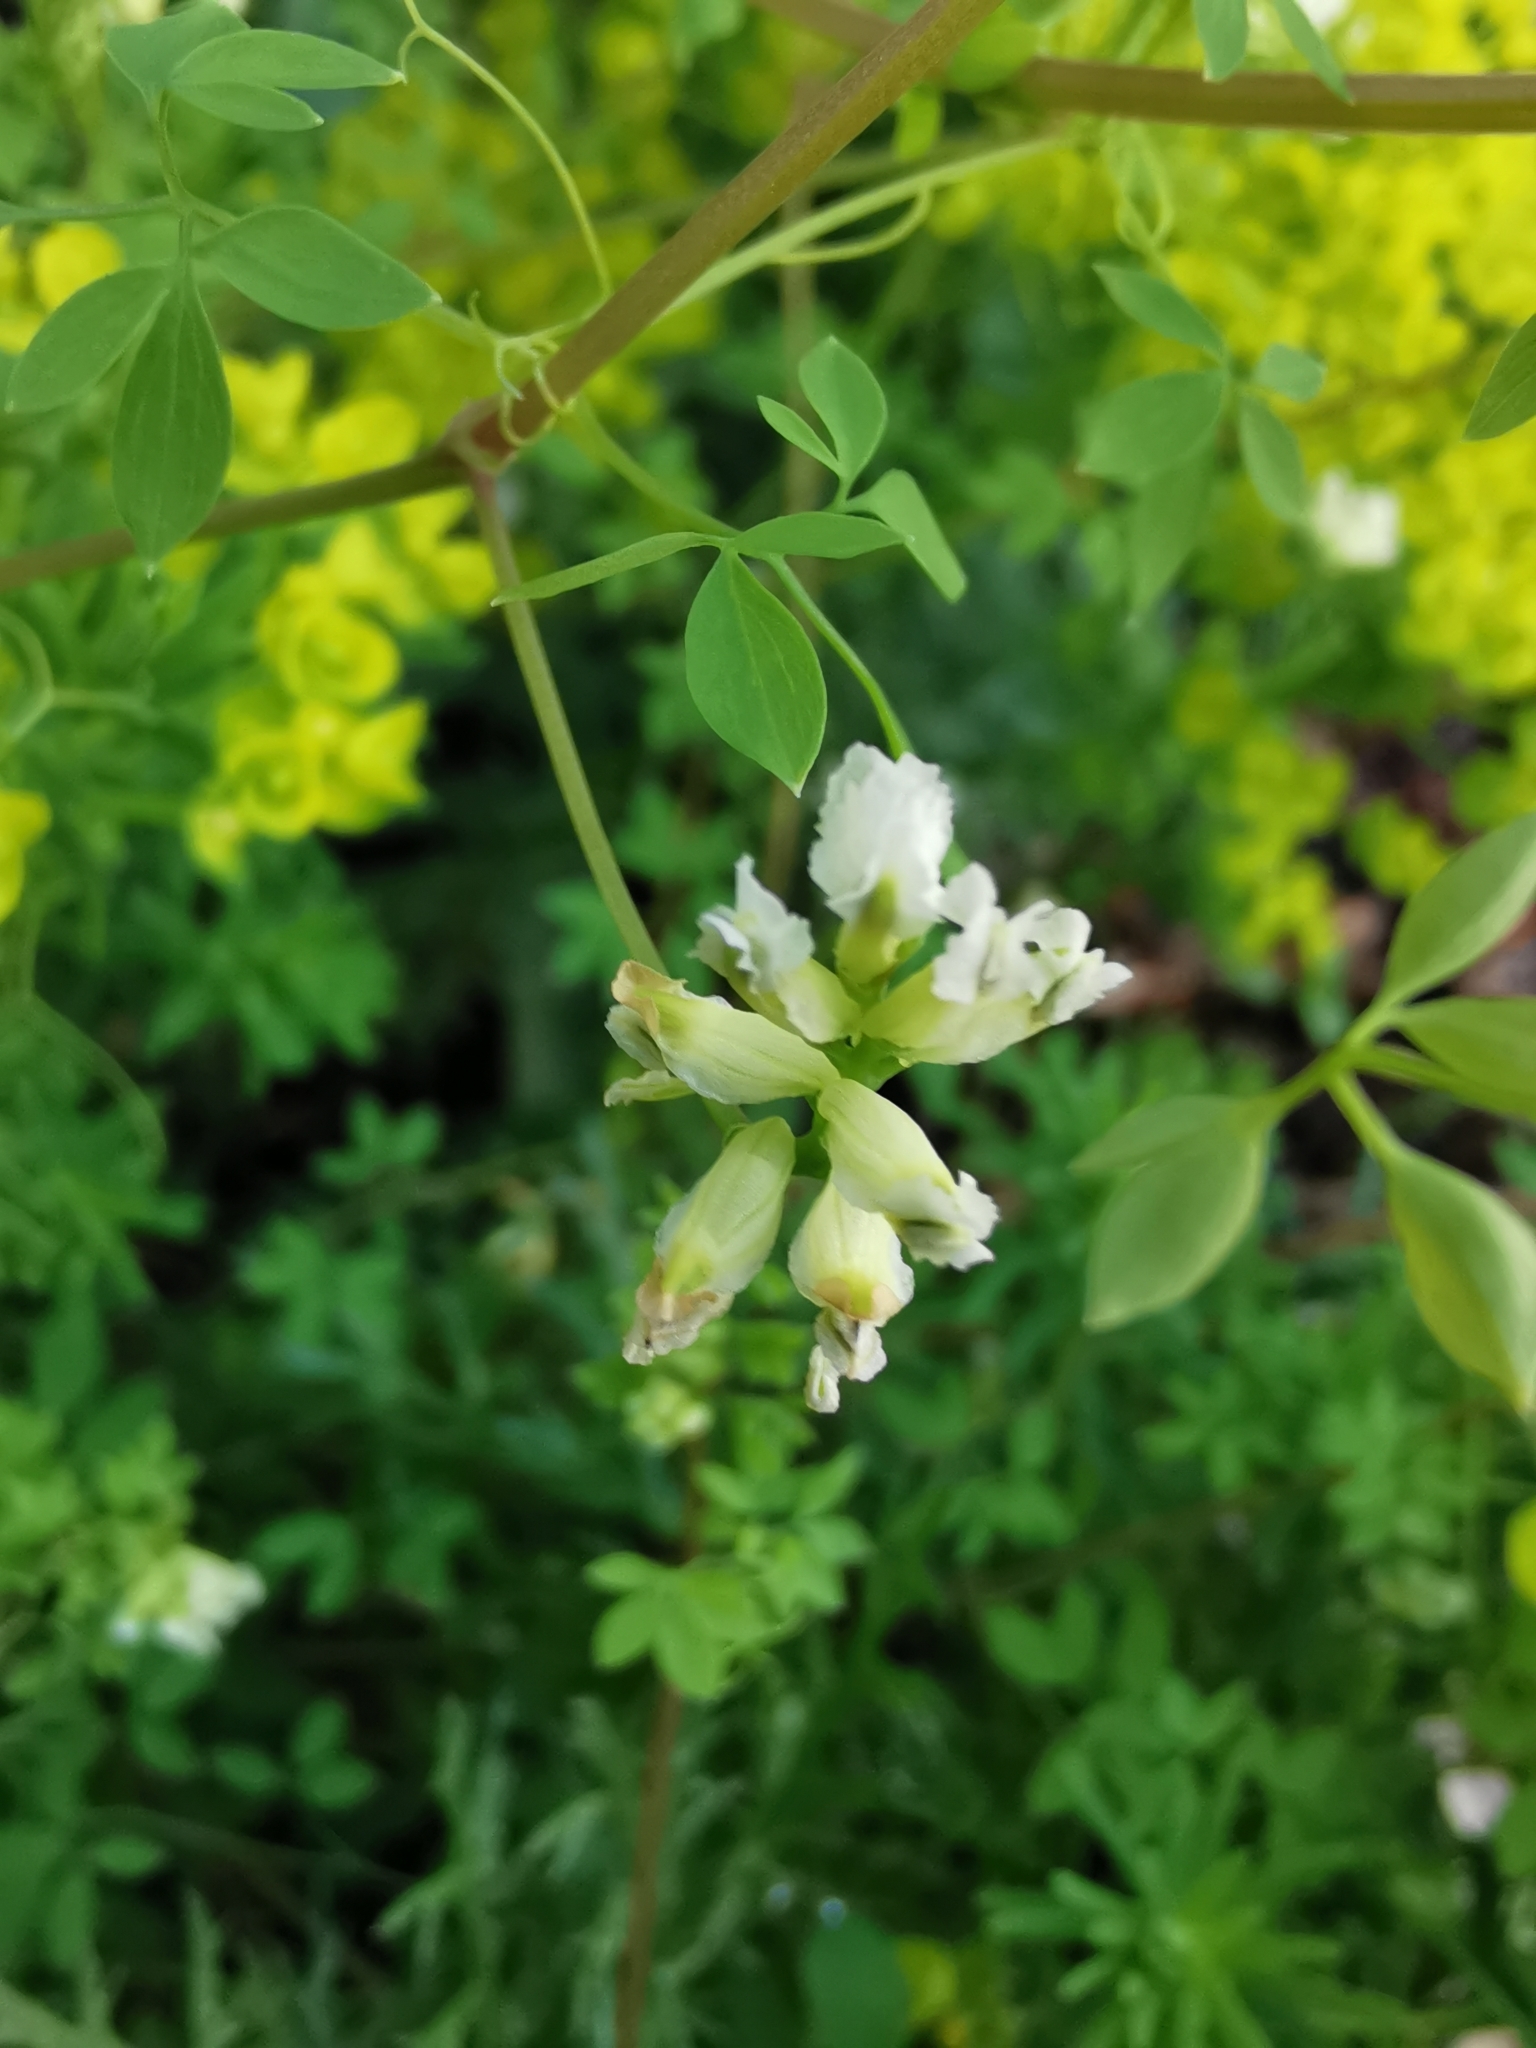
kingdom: Plantae
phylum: Tracheophyta
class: Magnoliopsida
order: Ranunculales
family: Papaveraceae
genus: Ceratocapnos
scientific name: Ceratocapnos claviculata
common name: Climbing corydalis
